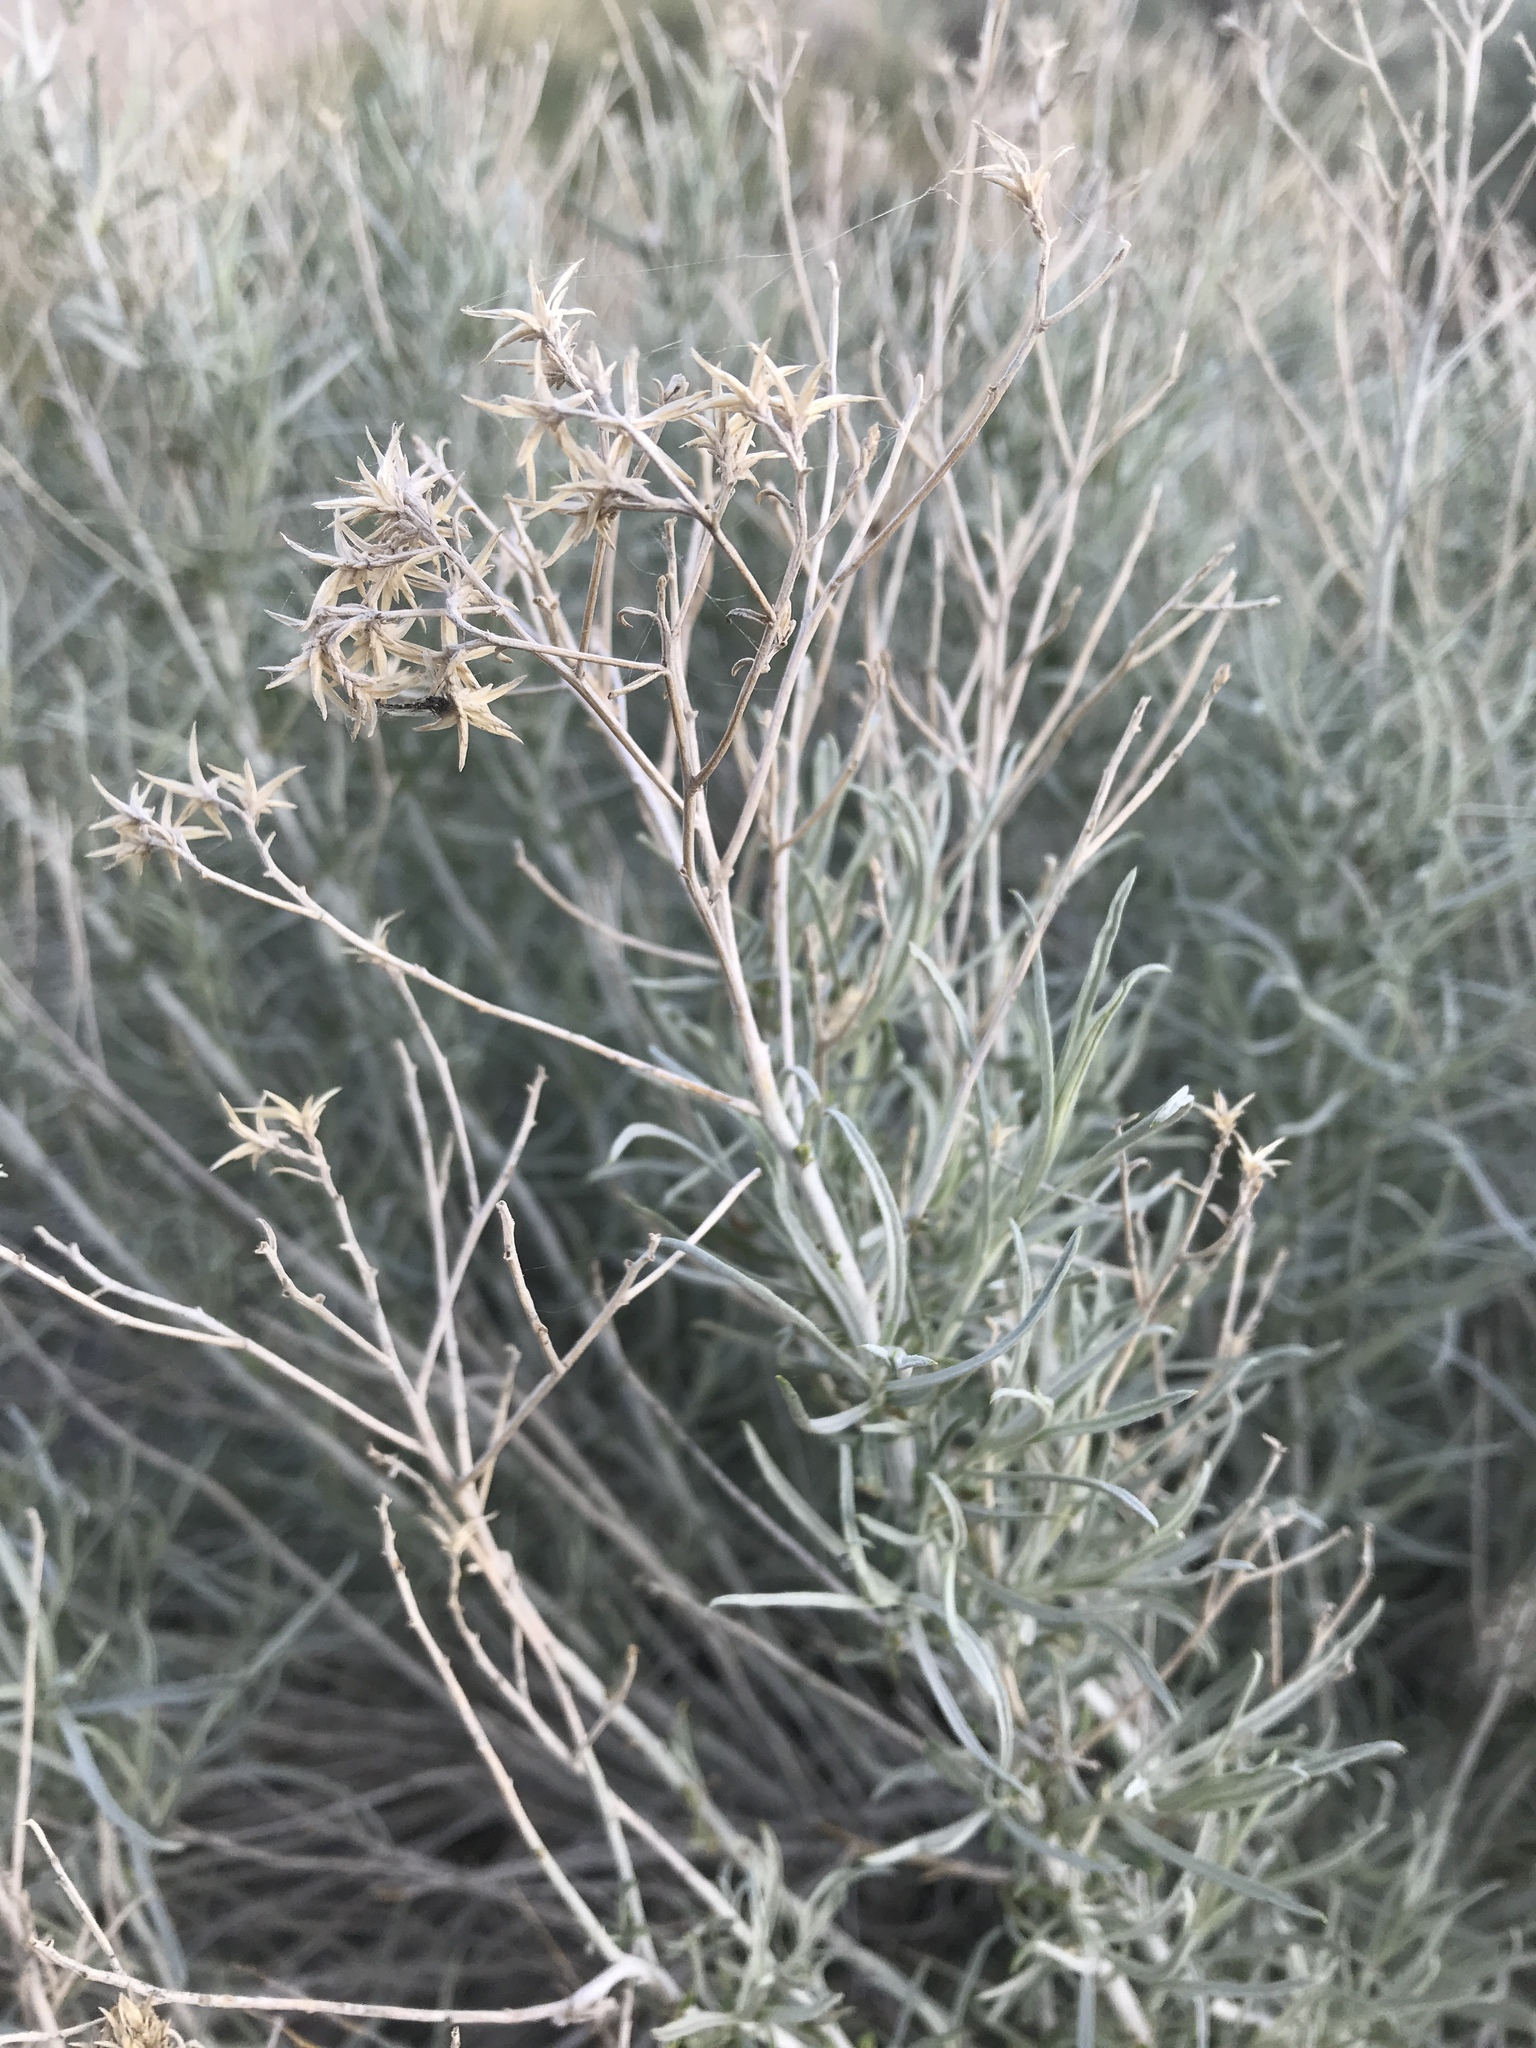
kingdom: Plantae
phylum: Tracheophyta
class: Magnoliopsida
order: Asterales
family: Asteraceae
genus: Ericameria
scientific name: Ericameria nauseosa
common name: Rubber rabbitbrush
